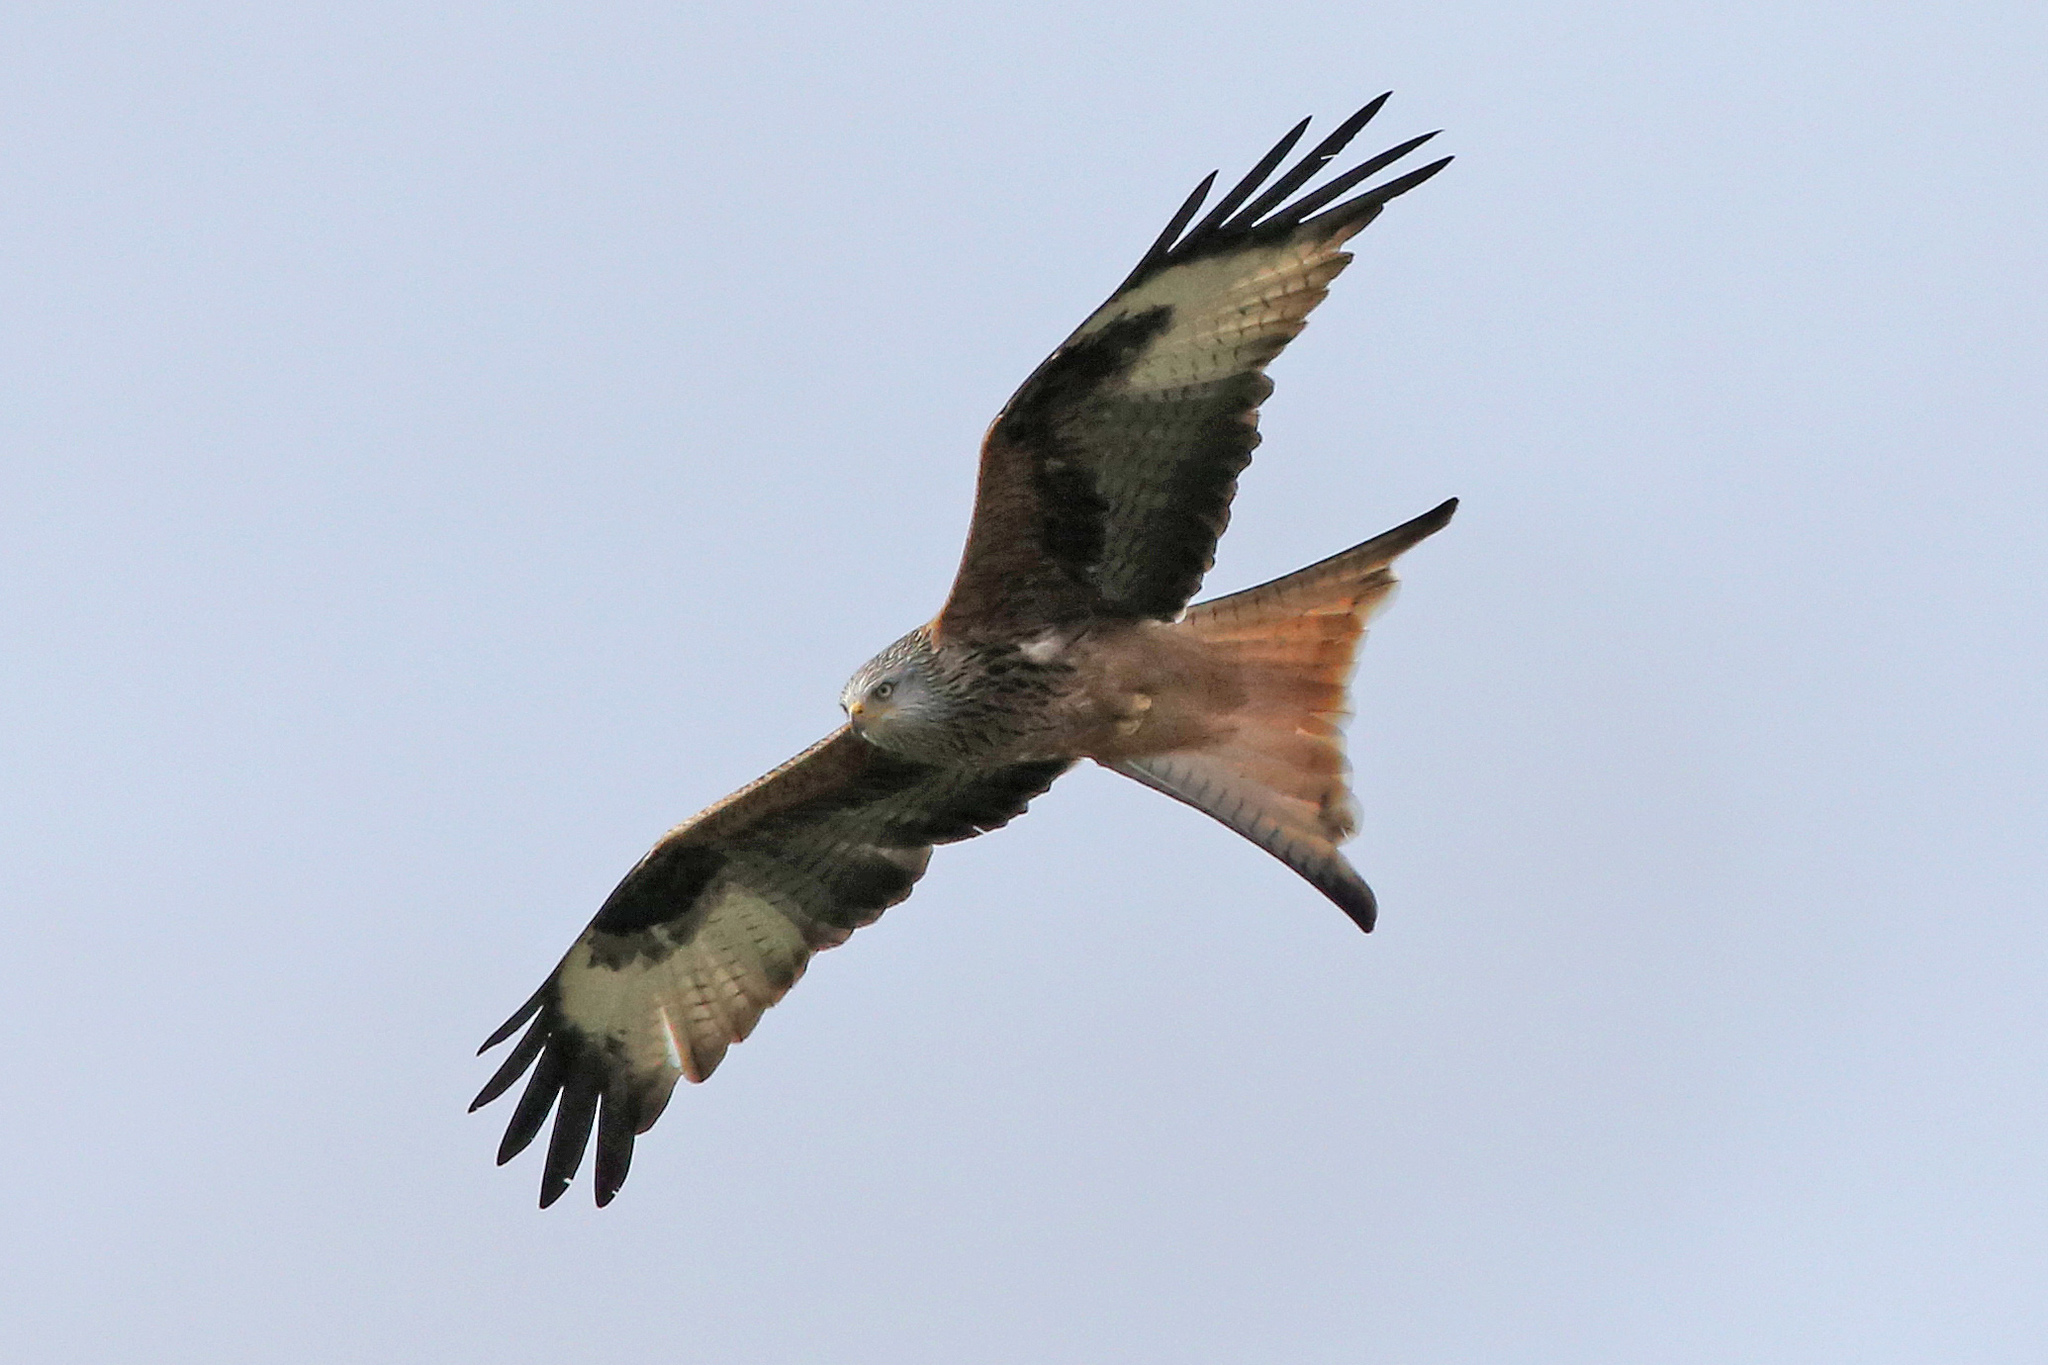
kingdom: Animalia
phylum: Chordata
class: Aves
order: Accipitriformes
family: Accipitridae
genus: Milvus
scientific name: Milvus milvus
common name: Red kite
